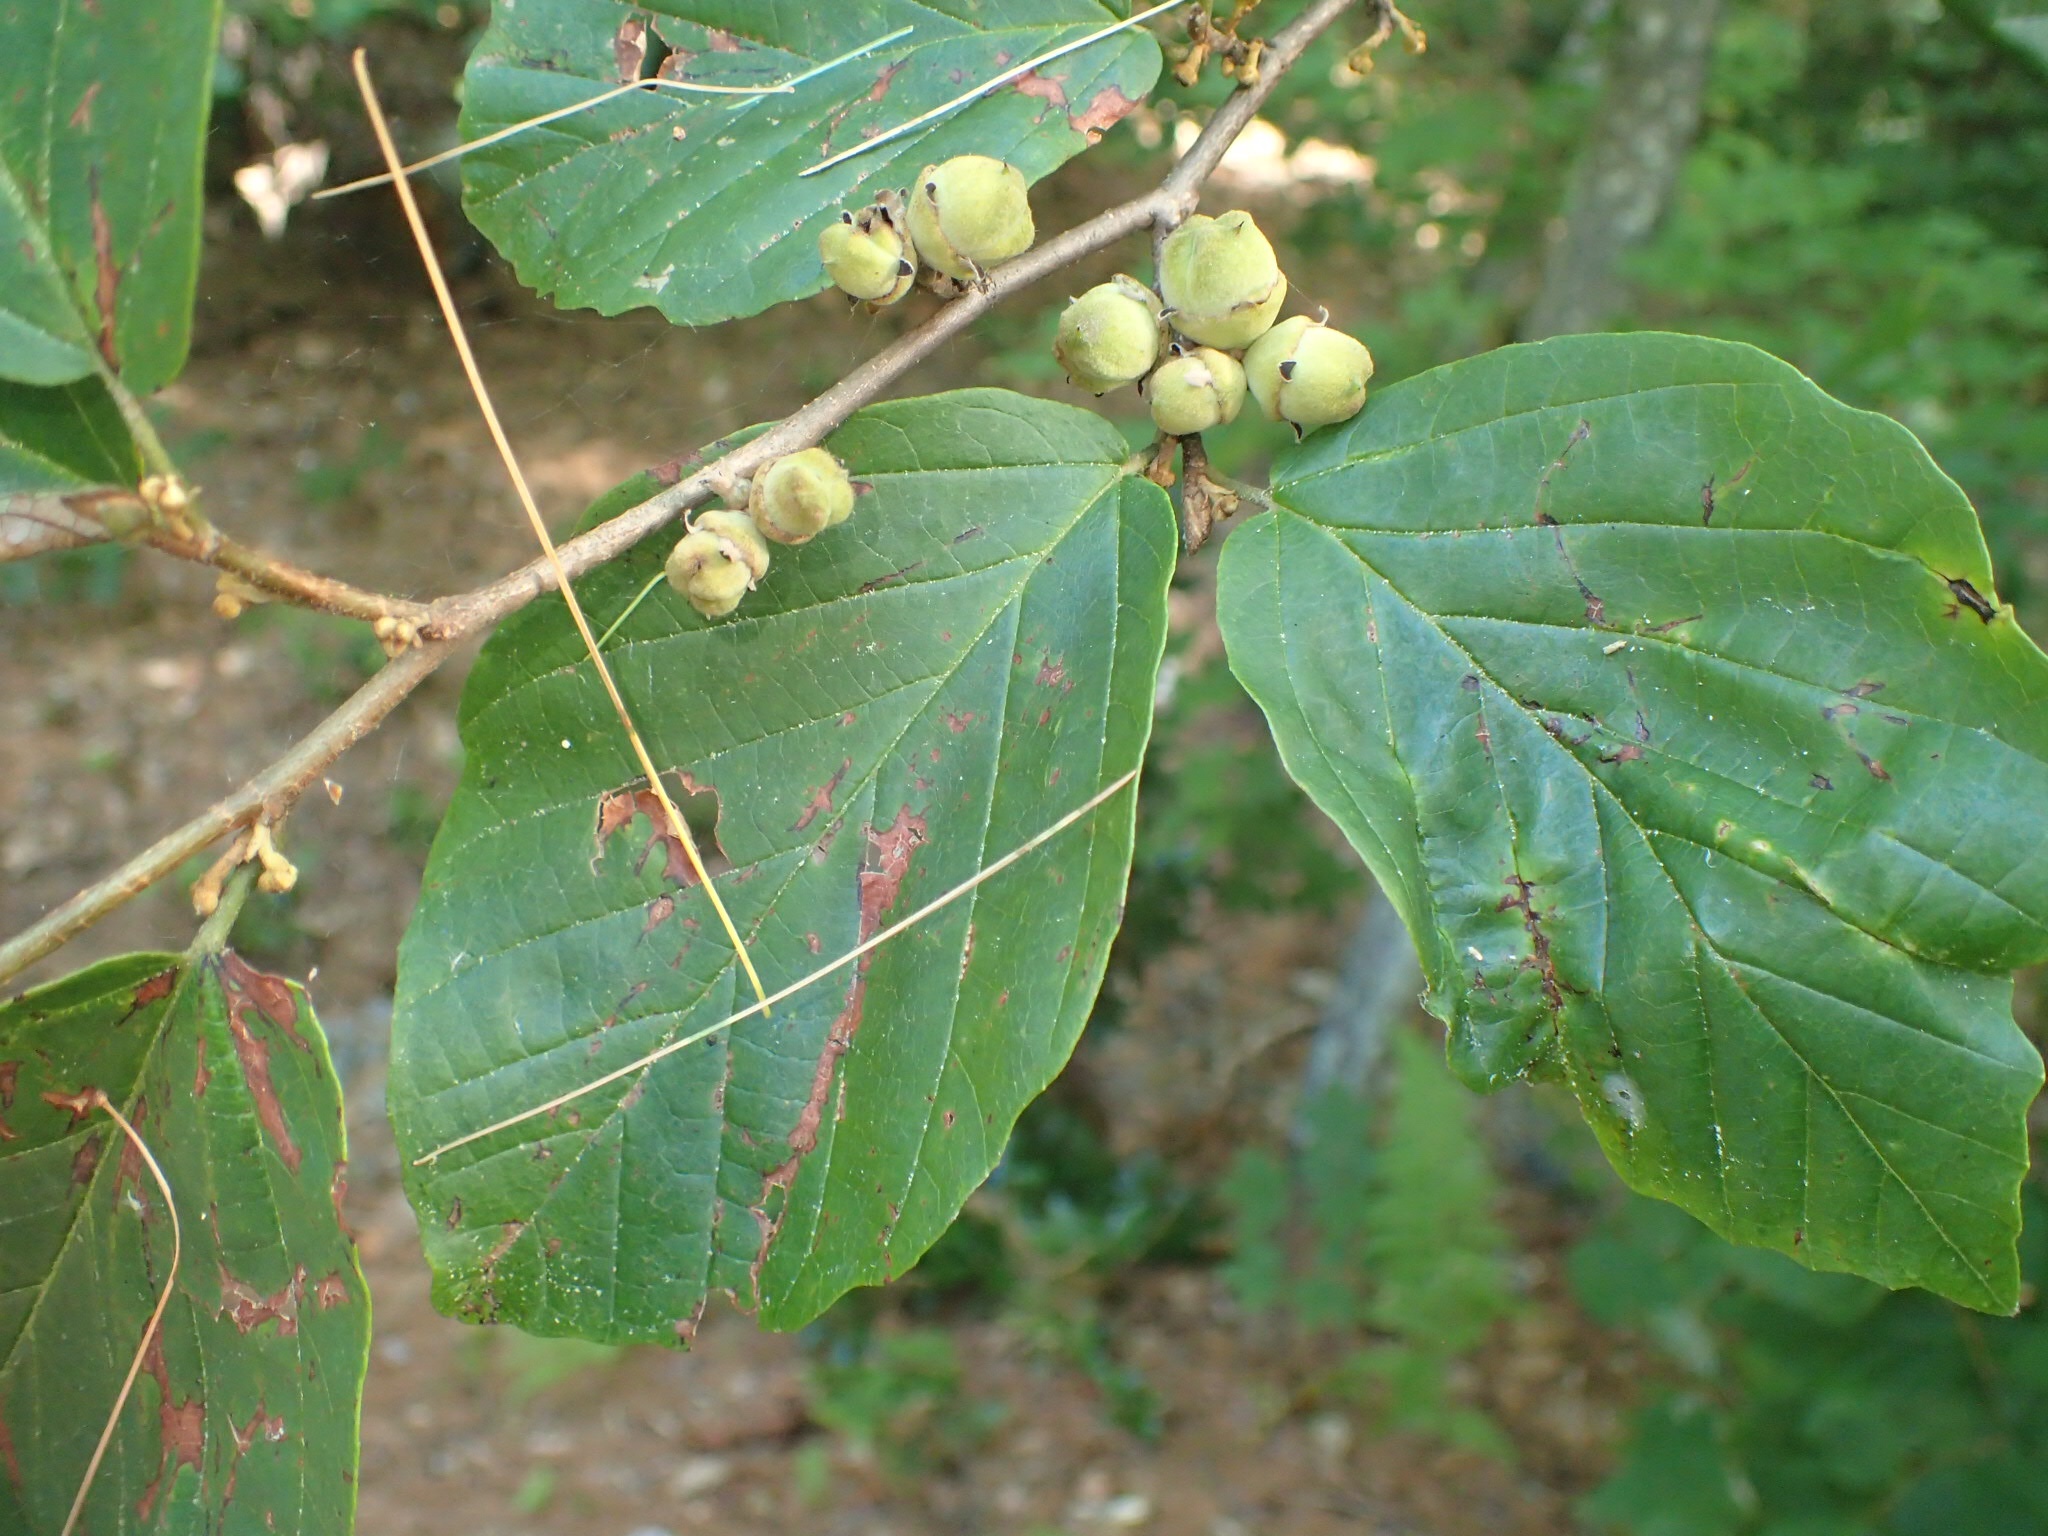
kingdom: Plantae
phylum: Tracheophyta
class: Magnoliopsida
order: Saxifragales
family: Hamamelidaceae
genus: Hamamelis
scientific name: Hamamelis virginiana
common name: Witch-hazel
